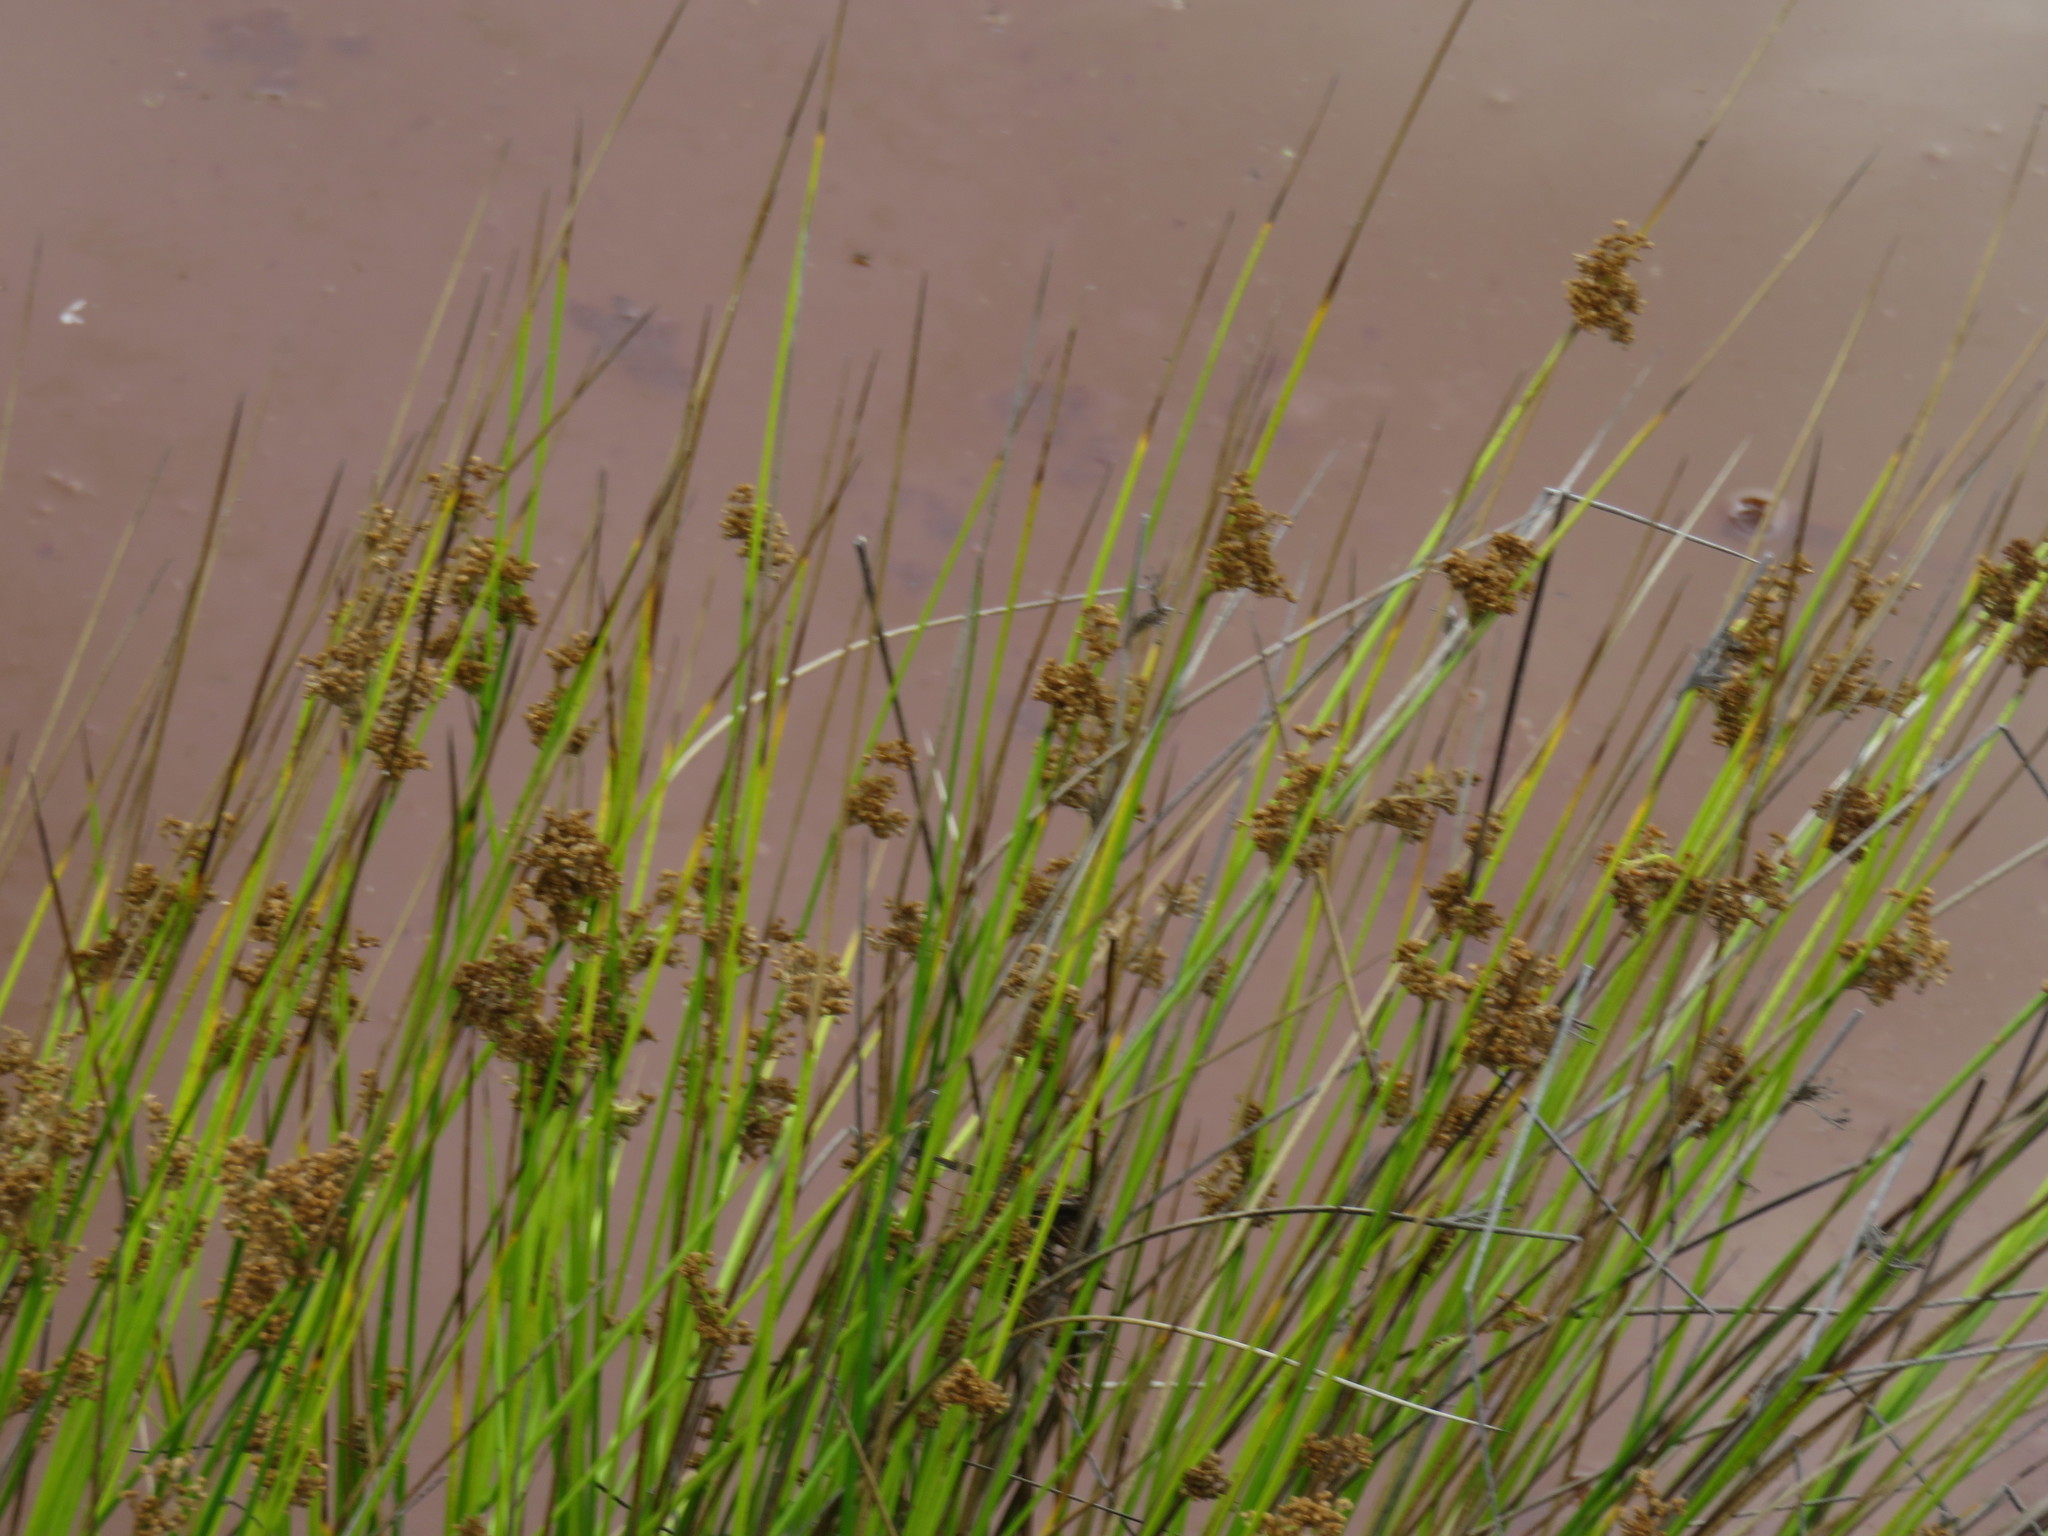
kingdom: Plantae
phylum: Tracheophyta
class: Liliopsida
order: Poales
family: Juncaceae
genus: Juncus
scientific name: Juncus effusus
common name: Soft rush
